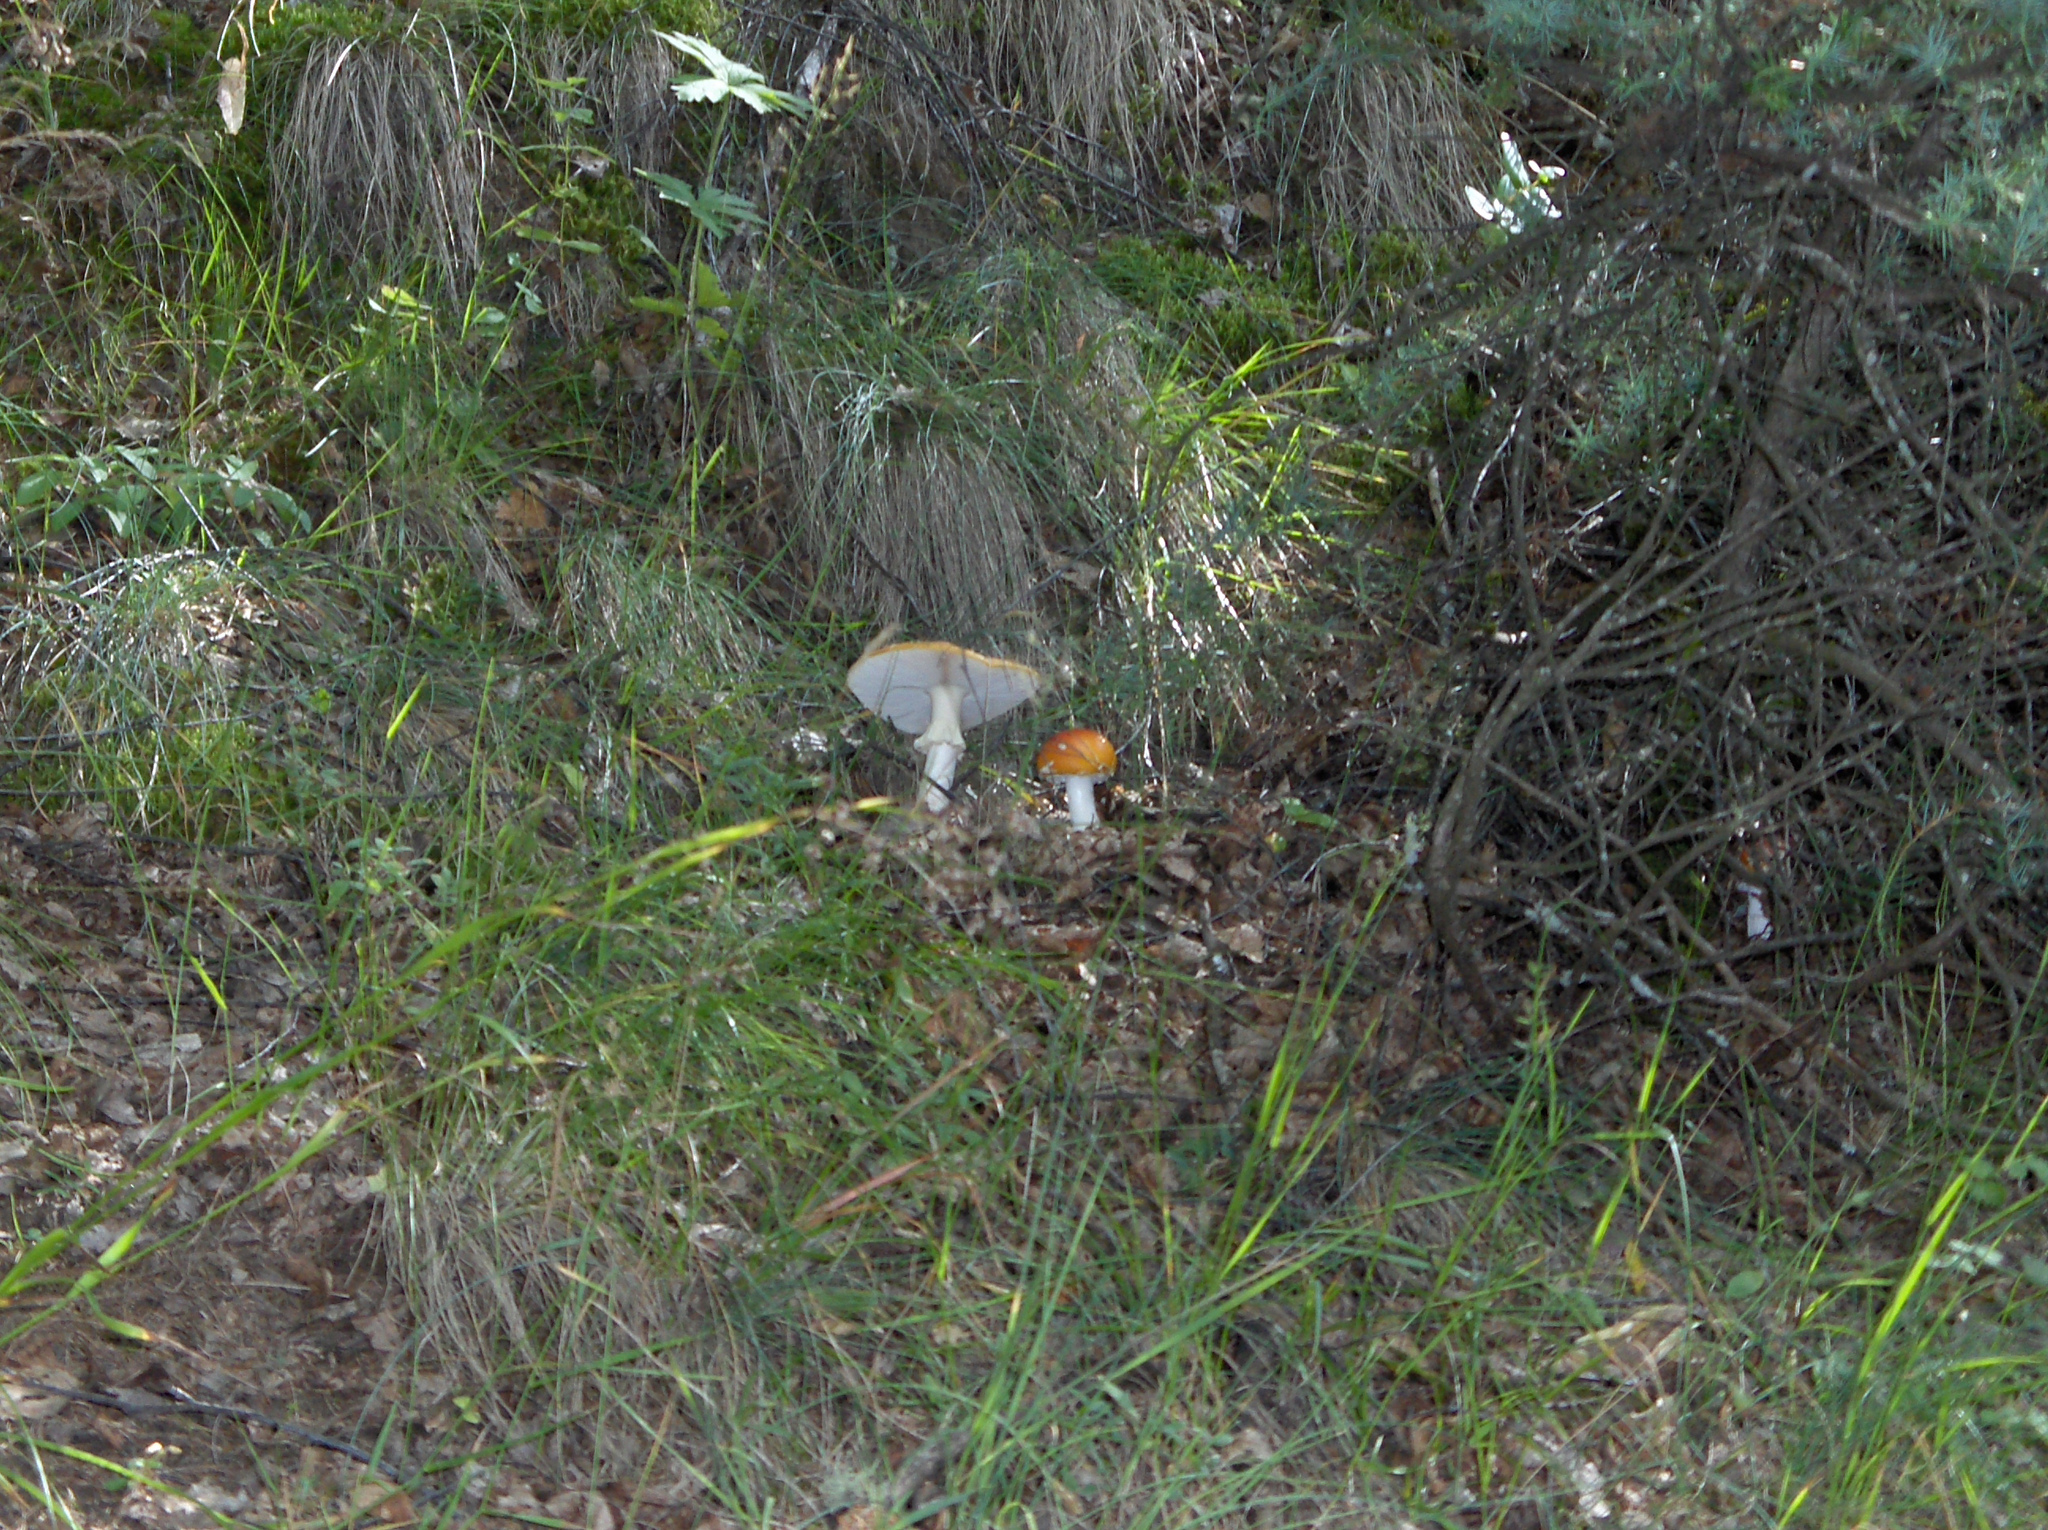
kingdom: Fungi
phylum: Basidiomycota
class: Agaricomycetes
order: Agaricales
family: Amanitaceae
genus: Amanita
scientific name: Amanita muscaria
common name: Fly agaric
